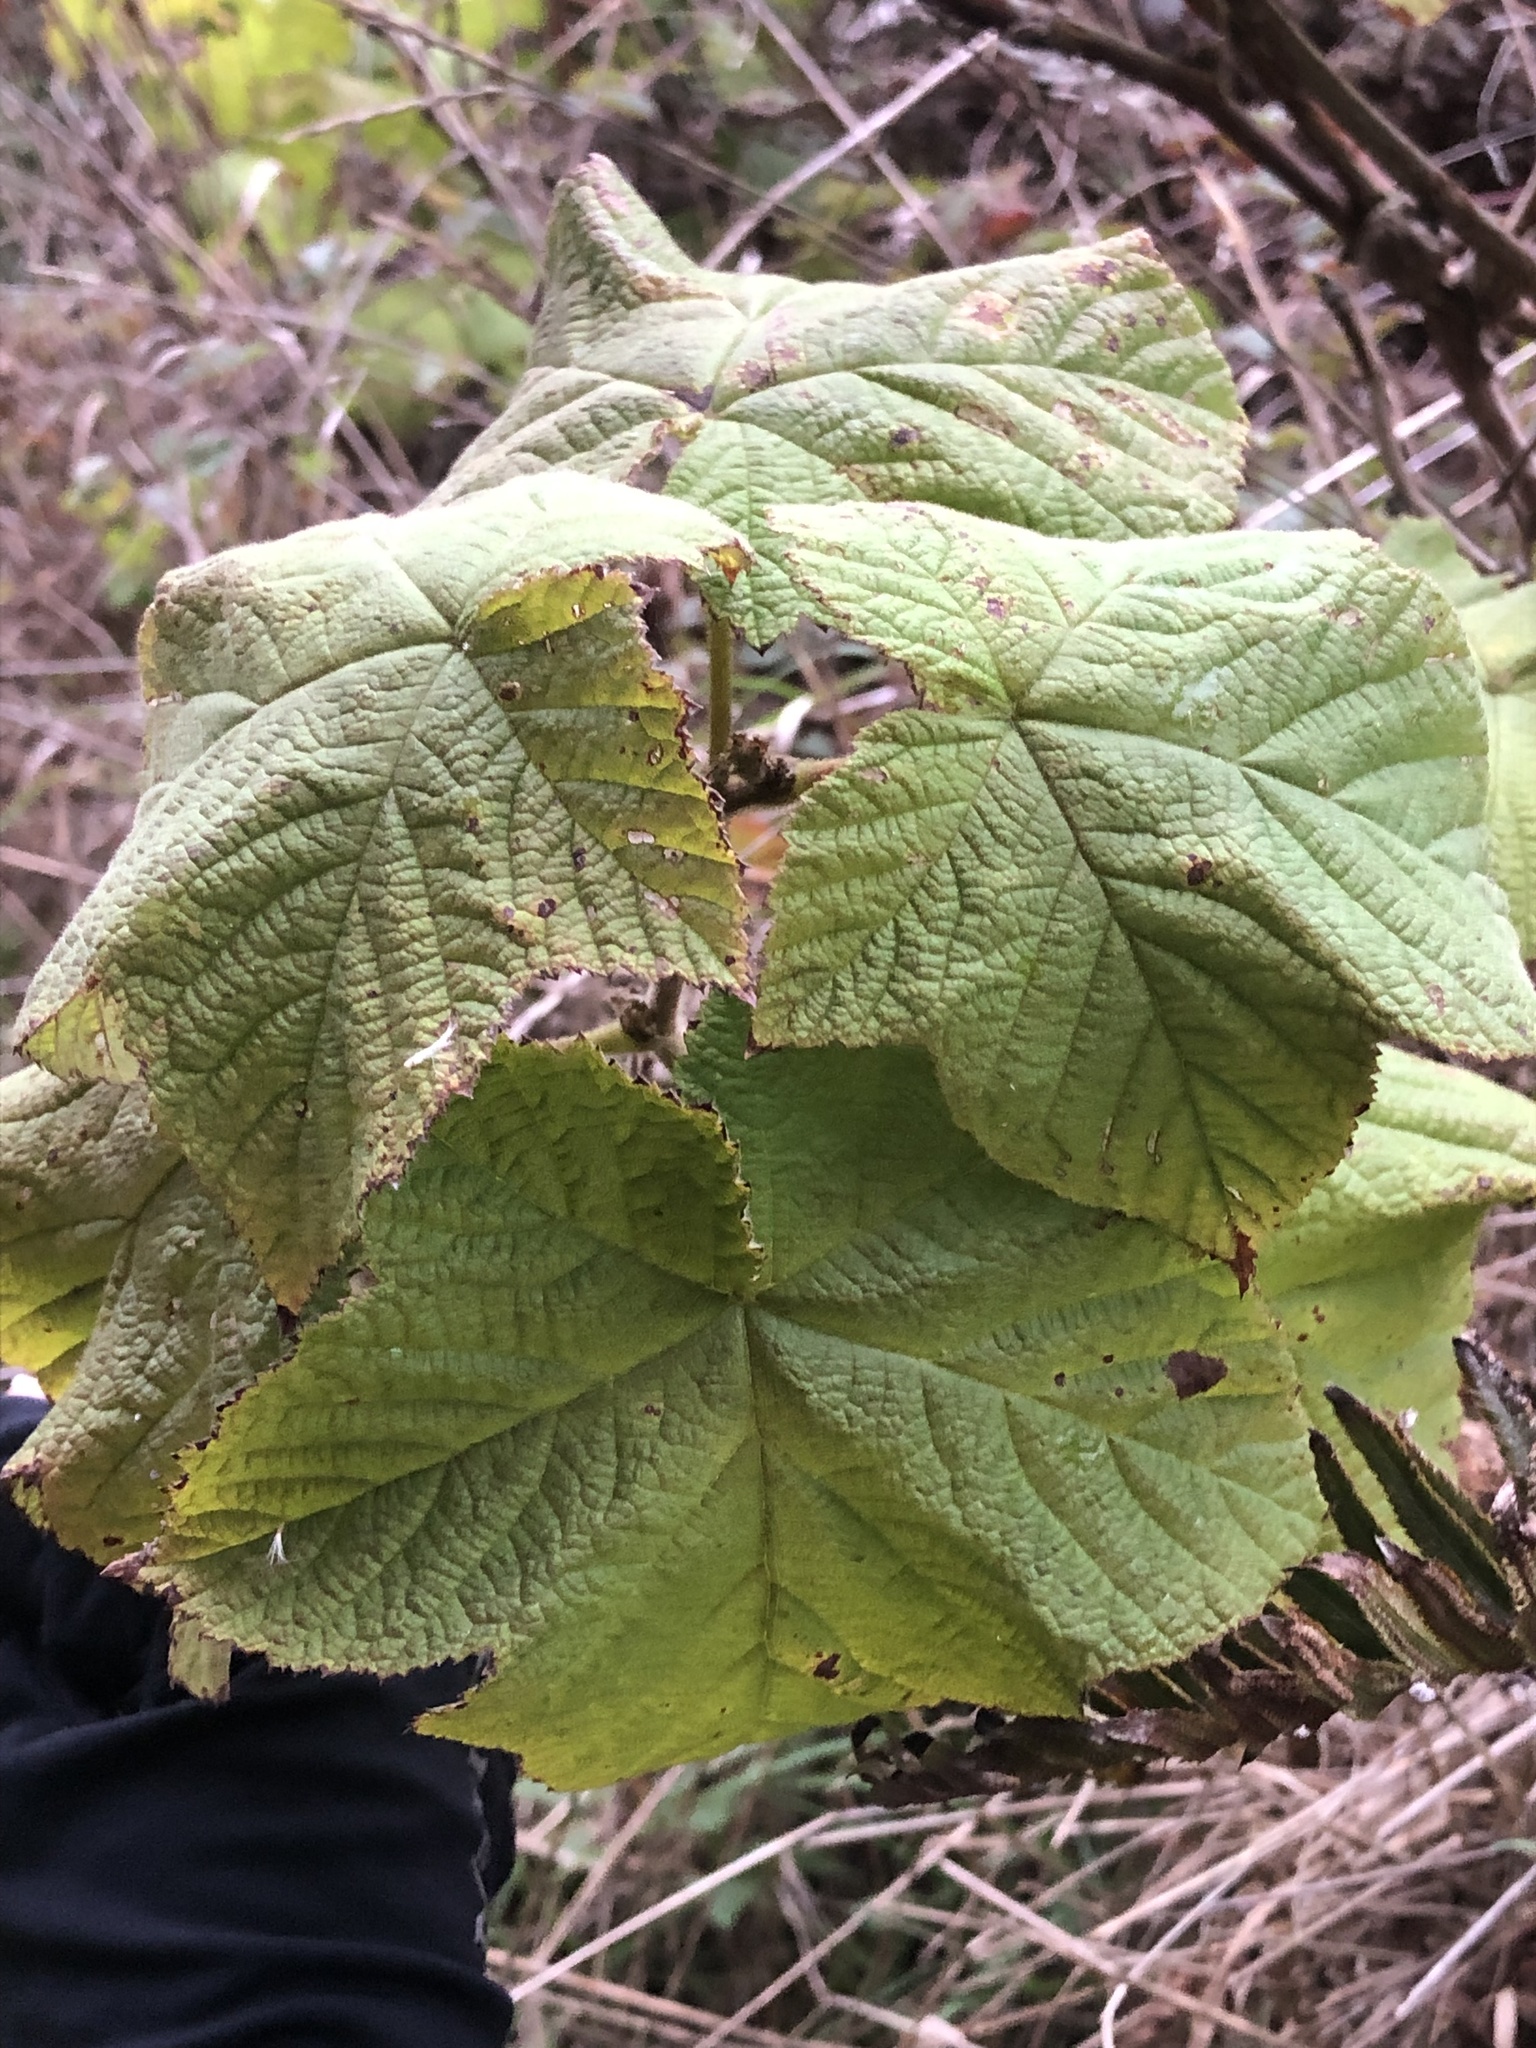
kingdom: Plantae
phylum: Tracheophyta
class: Magnoliopsida
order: Rosales
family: Rosaceae
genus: Rubus
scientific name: Rubus parviflorus
